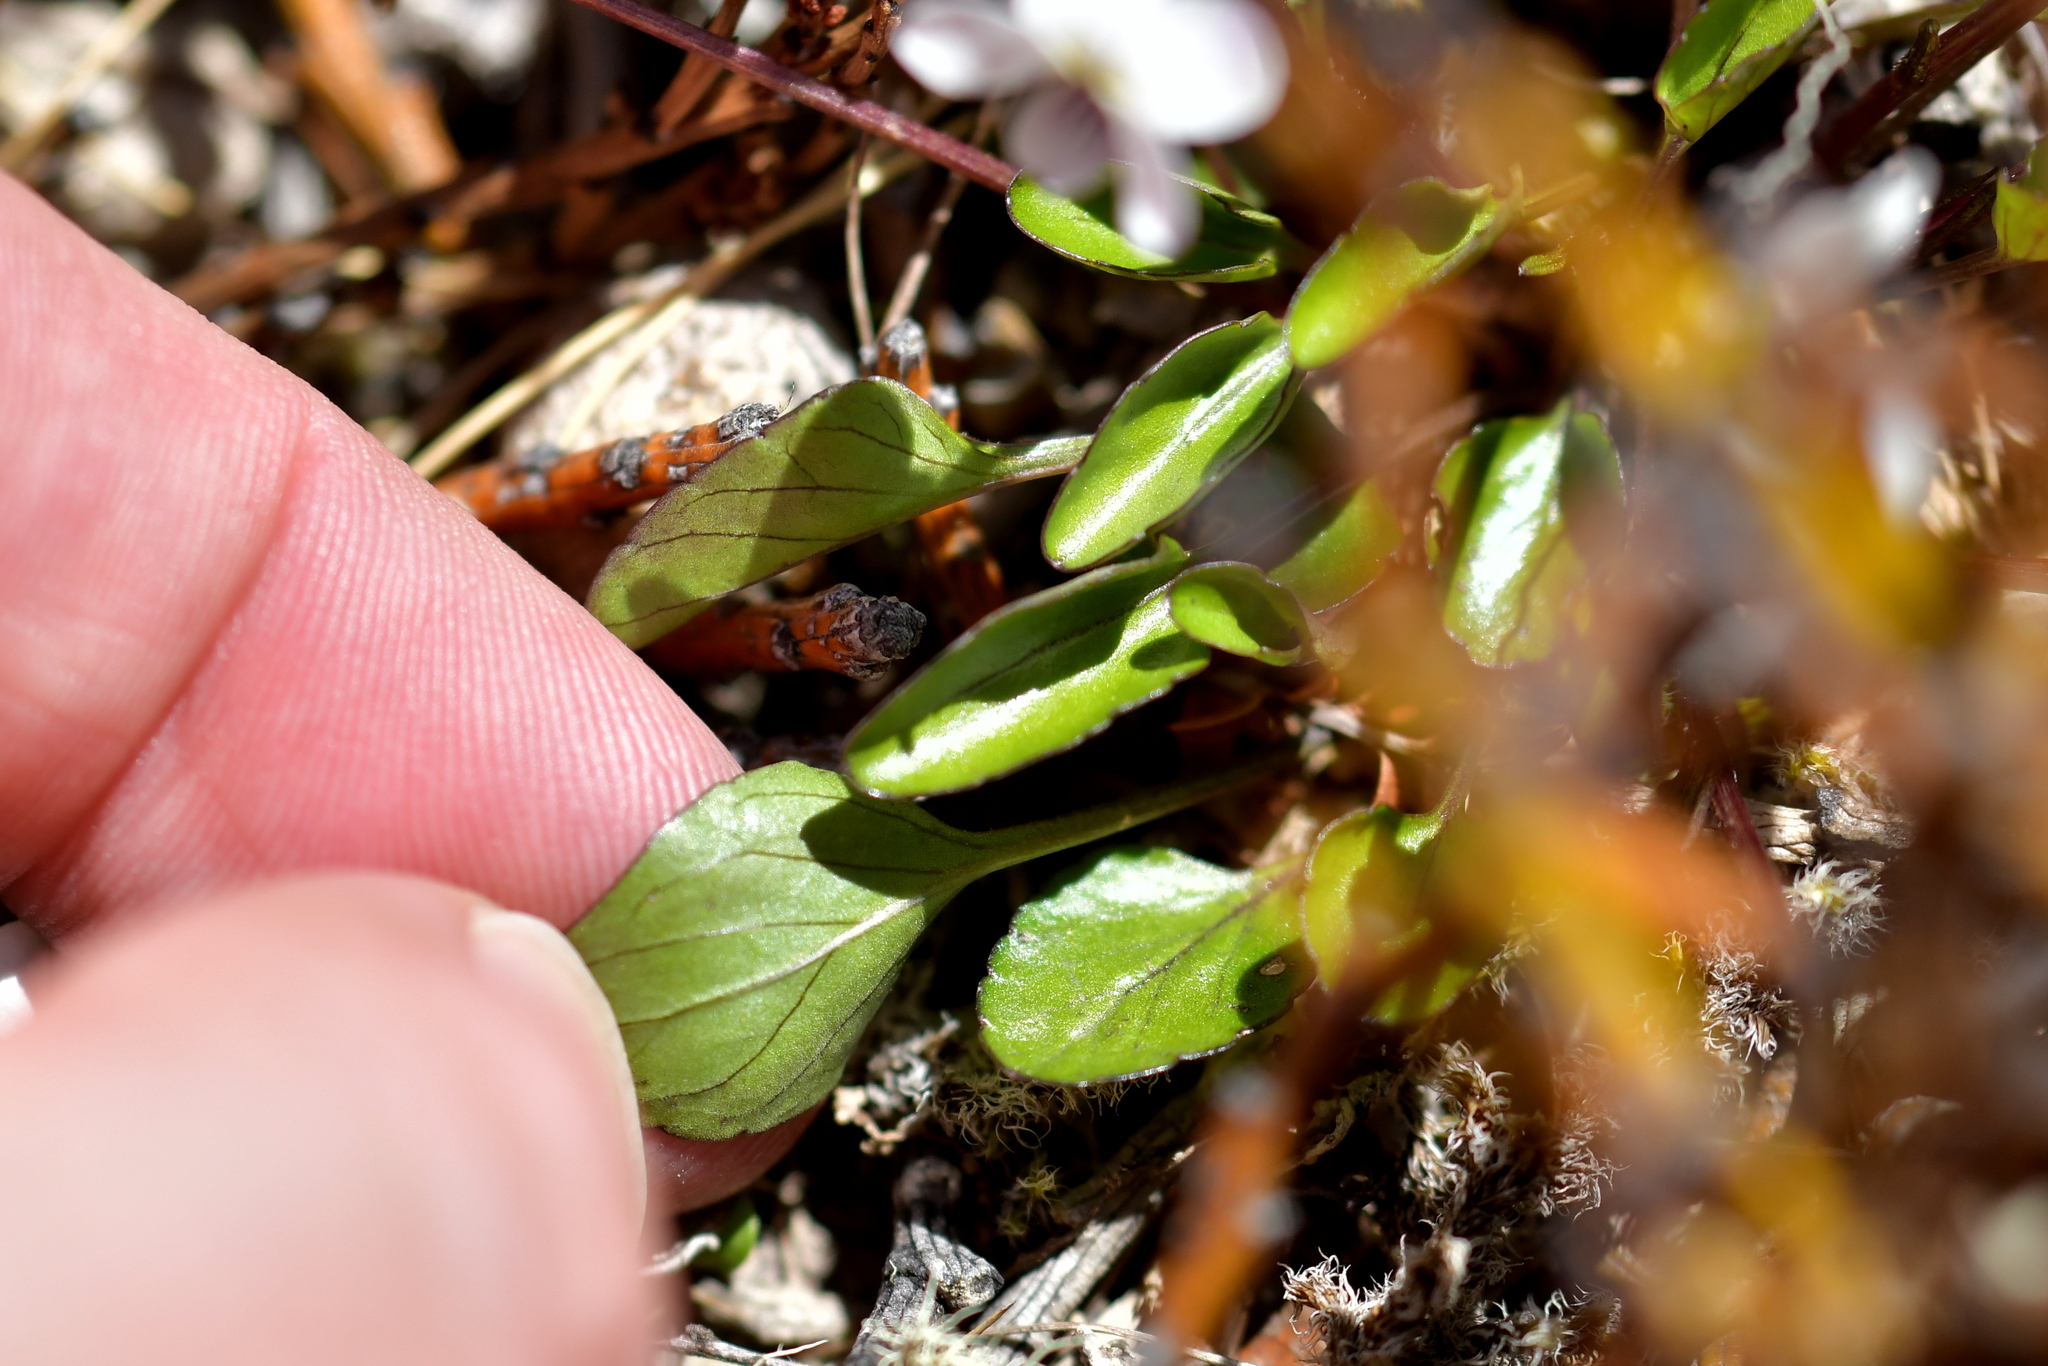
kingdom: Plantae
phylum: Tracheophyta
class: Magnoliopsida
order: Malpighiales
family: Violaceae
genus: Viola
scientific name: Viola cunninghamii
